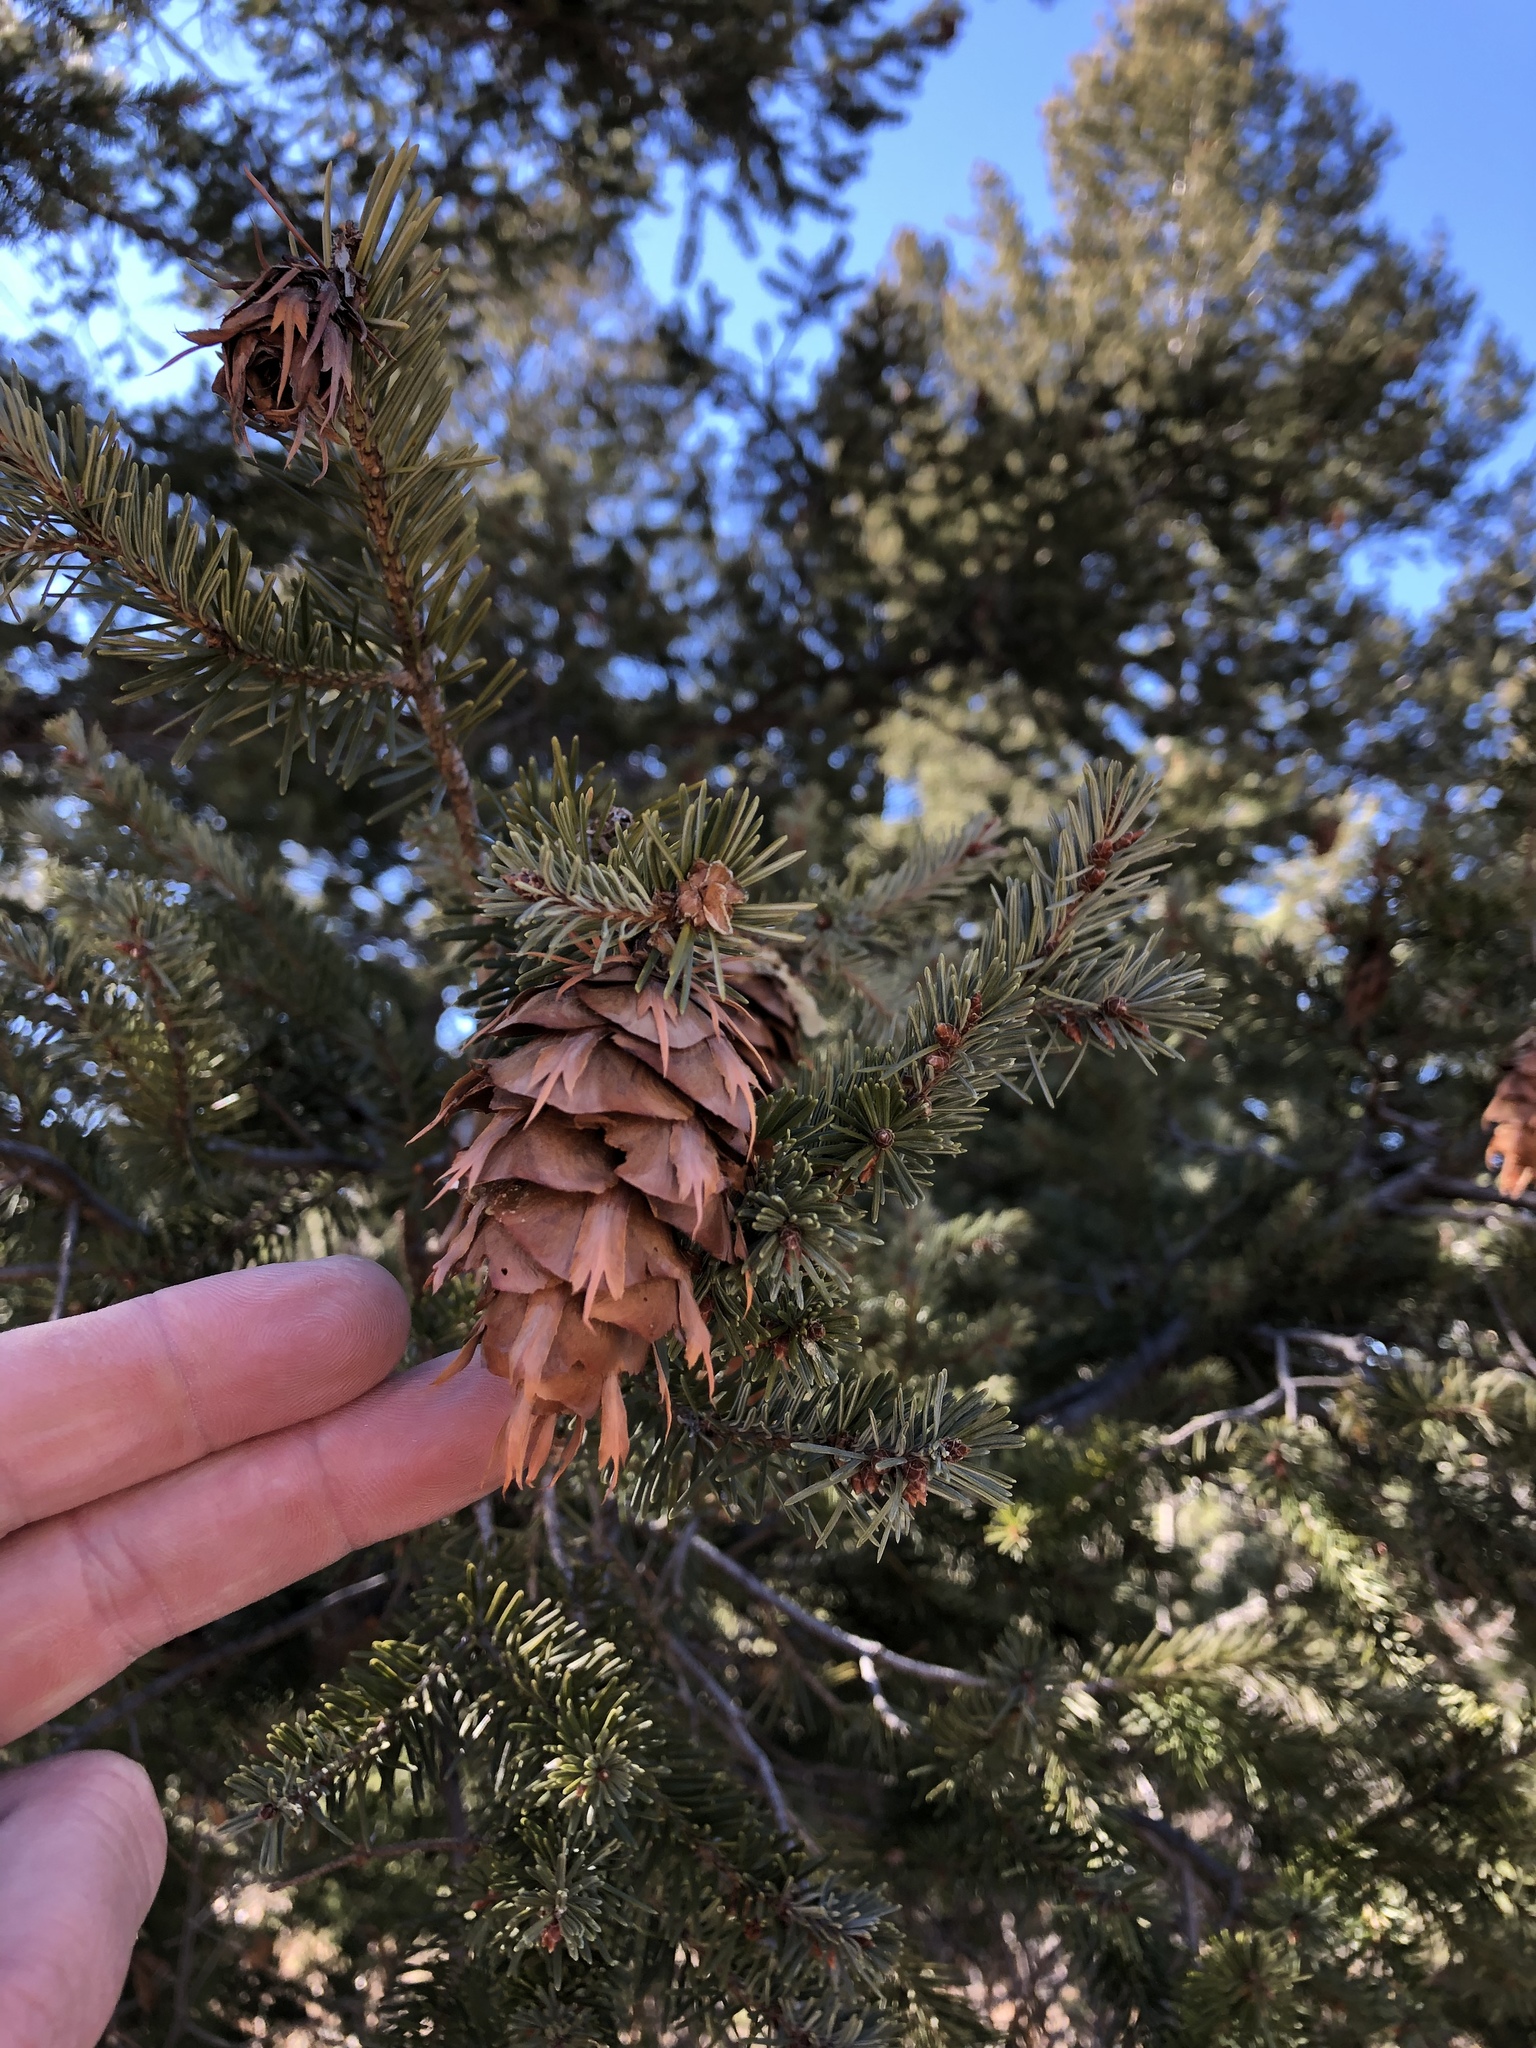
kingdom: Plantae
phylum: Tracheophyta
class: Pinopsida
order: Pinales
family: Pinaceae
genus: Pseudotsuga
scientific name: Pseudotsuga menziesii
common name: Douglas fir
